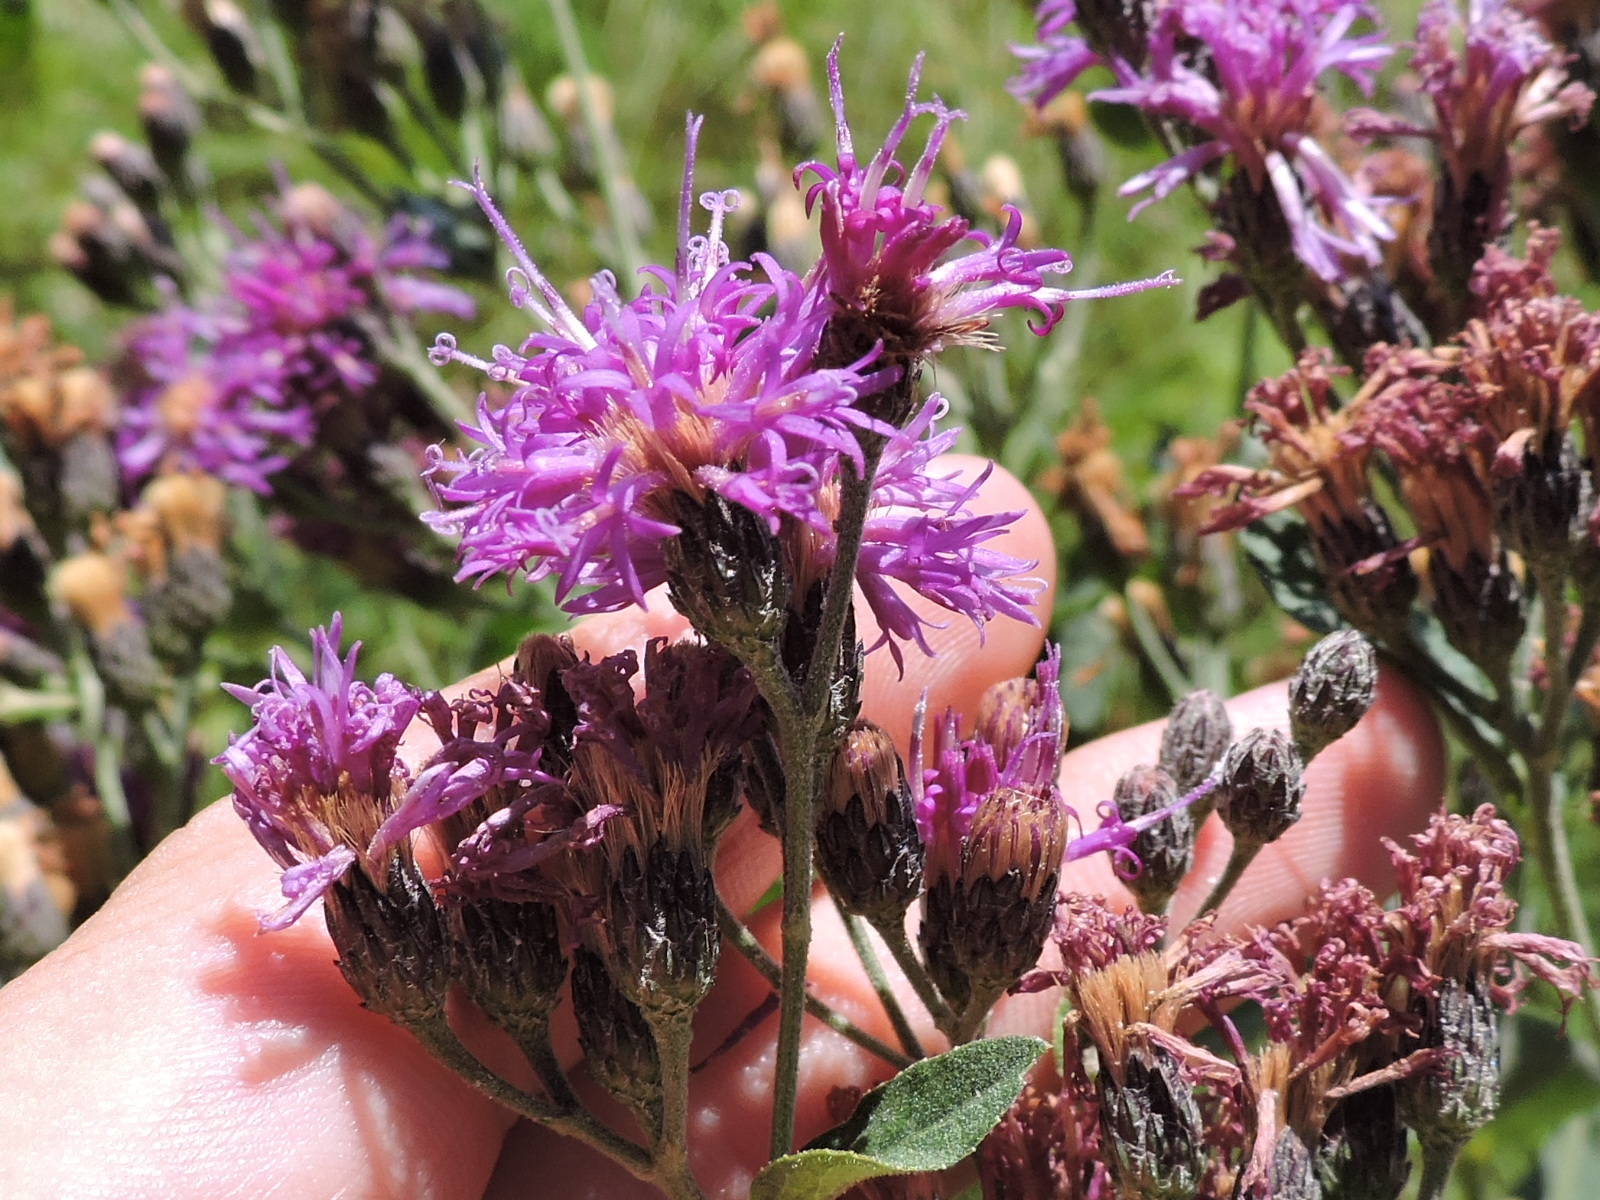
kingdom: Plantae
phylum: Tracheophyta
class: Magnoliopsida
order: Asterales
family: Asteraceae
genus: Vernonia
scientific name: Vernonia baldwinii
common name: Western ironweed
